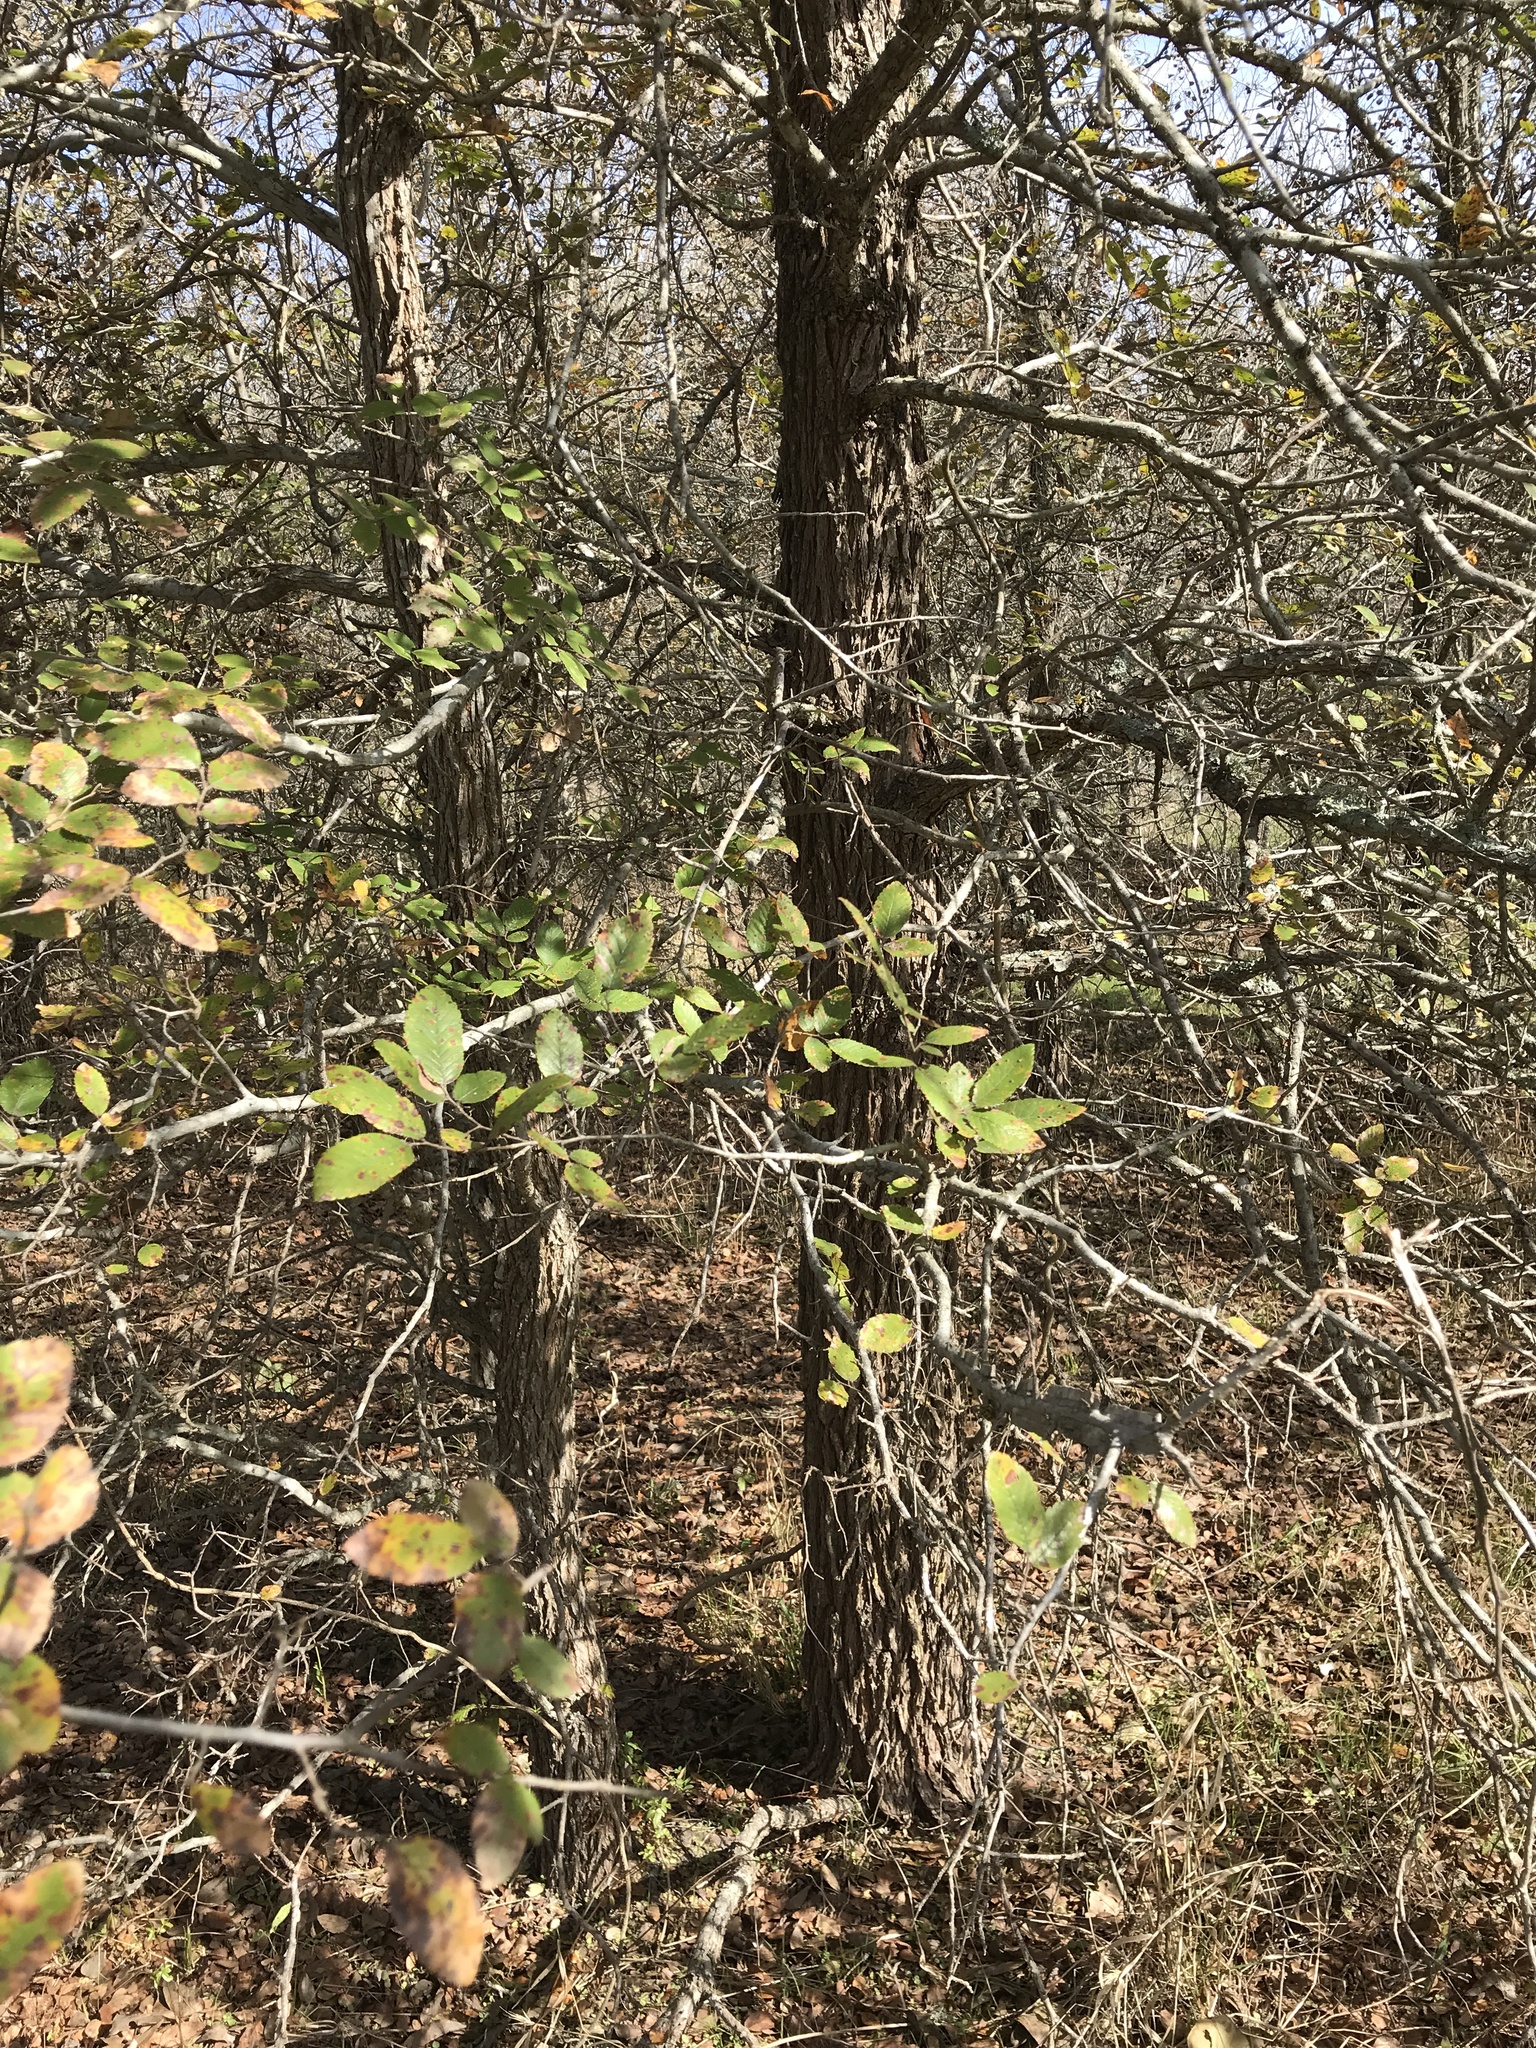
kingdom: Plantae
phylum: Tracheophyta
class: Magnoliopsida
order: Rosales
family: Ulmaceae
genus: Ulmus
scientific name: Ulmus crassifolia
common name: Basket elm
